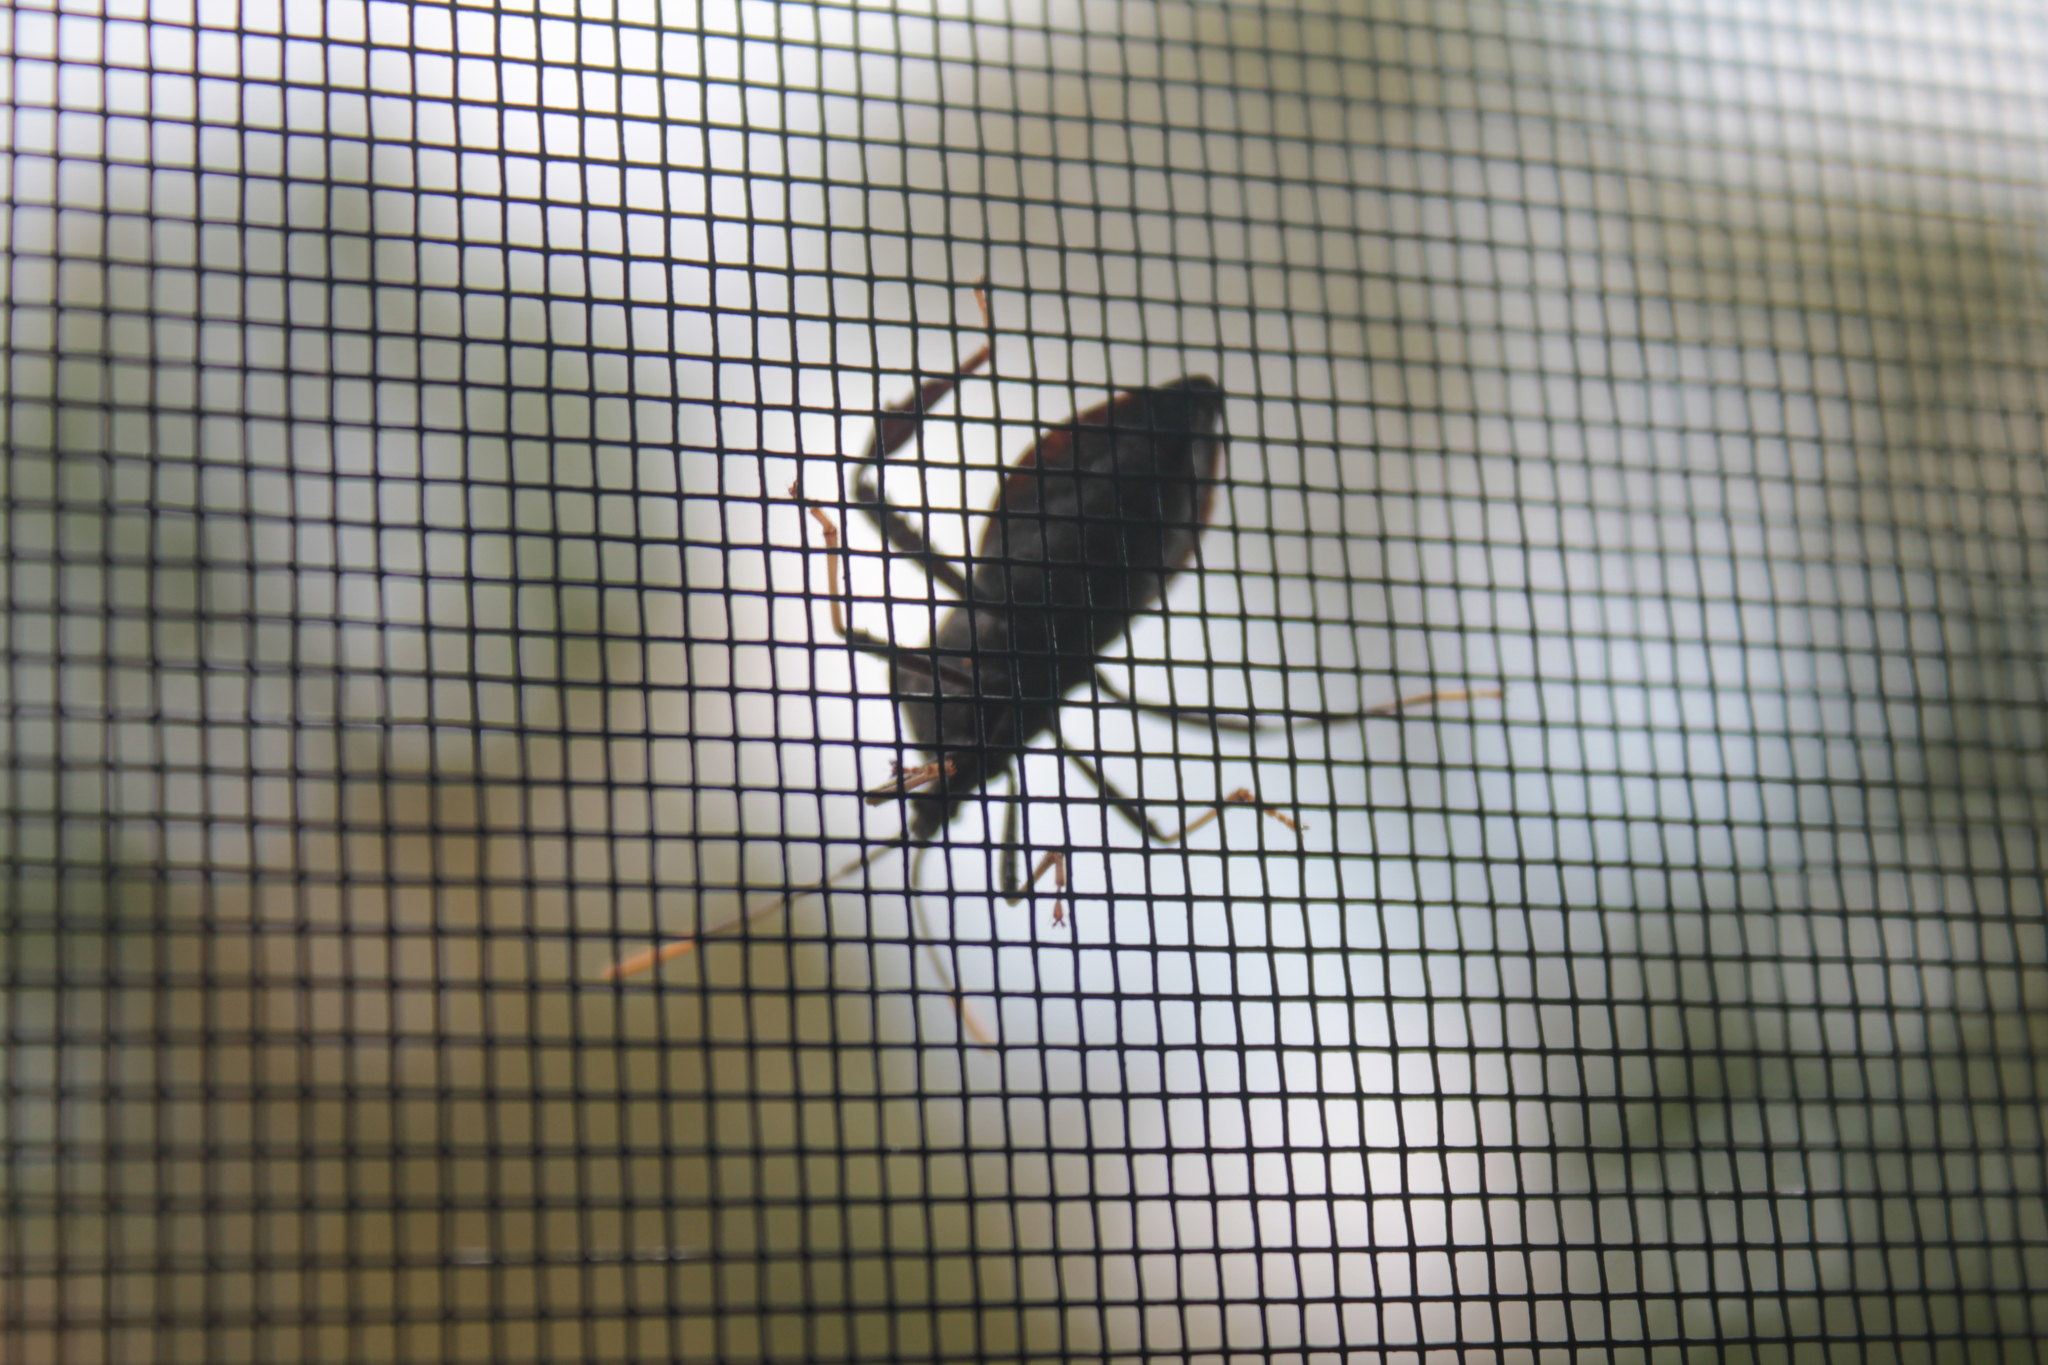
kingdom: Animalia
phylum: Arthropoda
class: Insecta
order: Hemiptera
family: Coreidae
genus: Acanthocephala
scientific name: Acanthocephala terminalis
